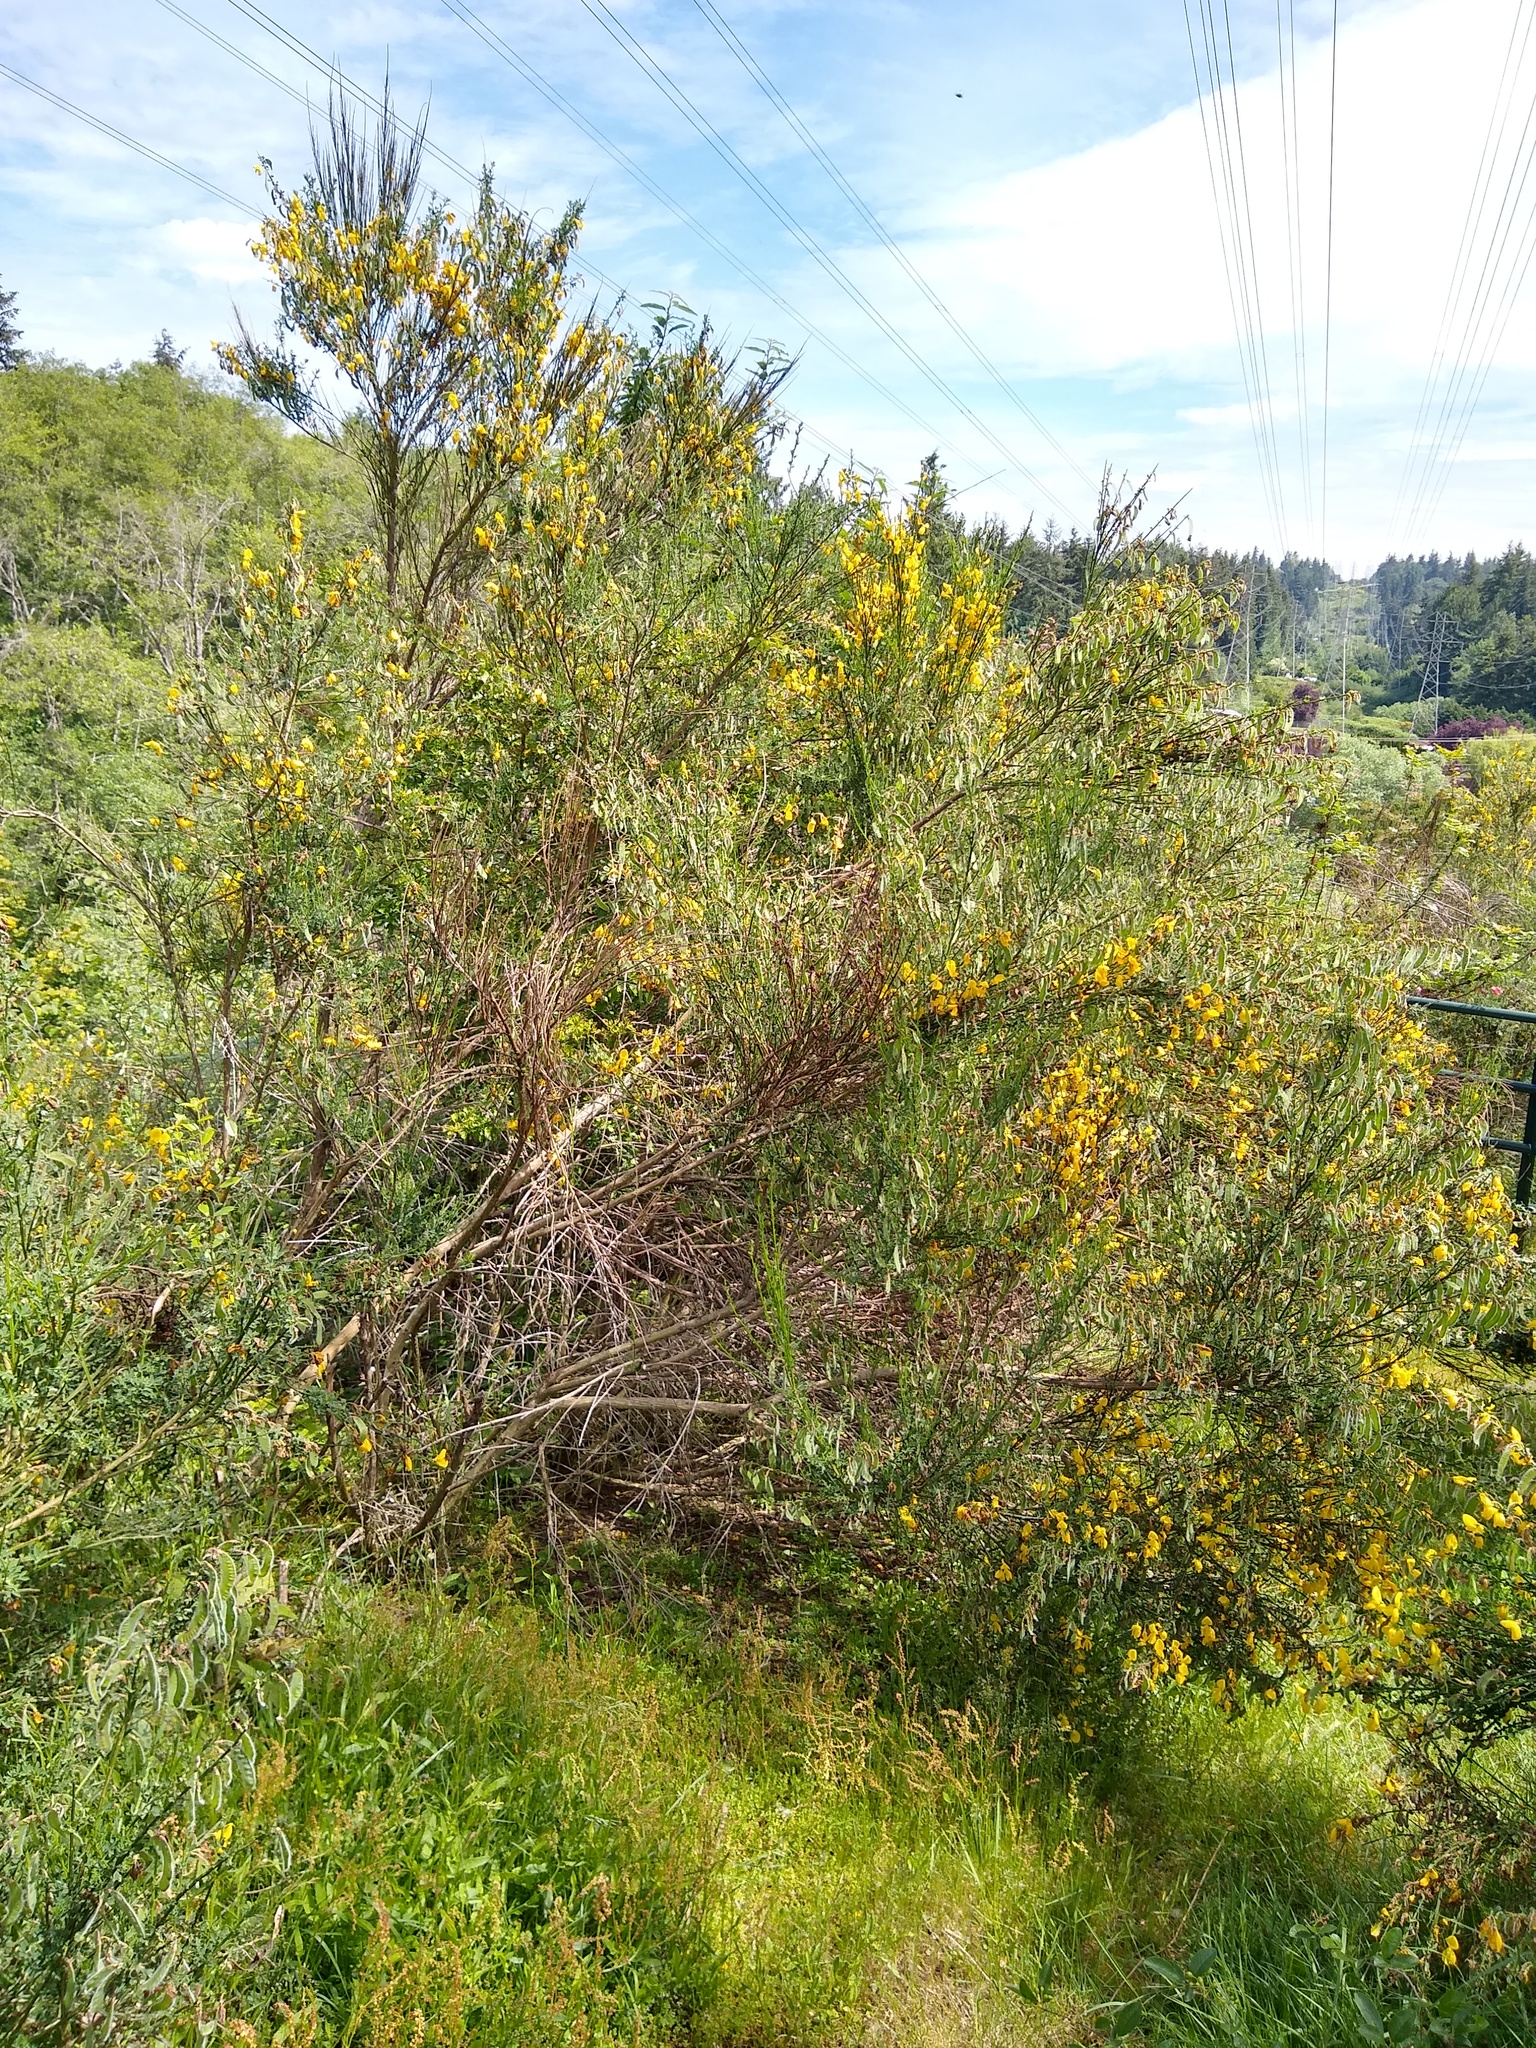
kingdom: Plantae
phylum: Tracheophyta
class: Magnoliopsida
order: Fabales
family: Fabaceae
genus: Cytisus
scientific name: Cytisus scoparius
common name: Scotch broom
